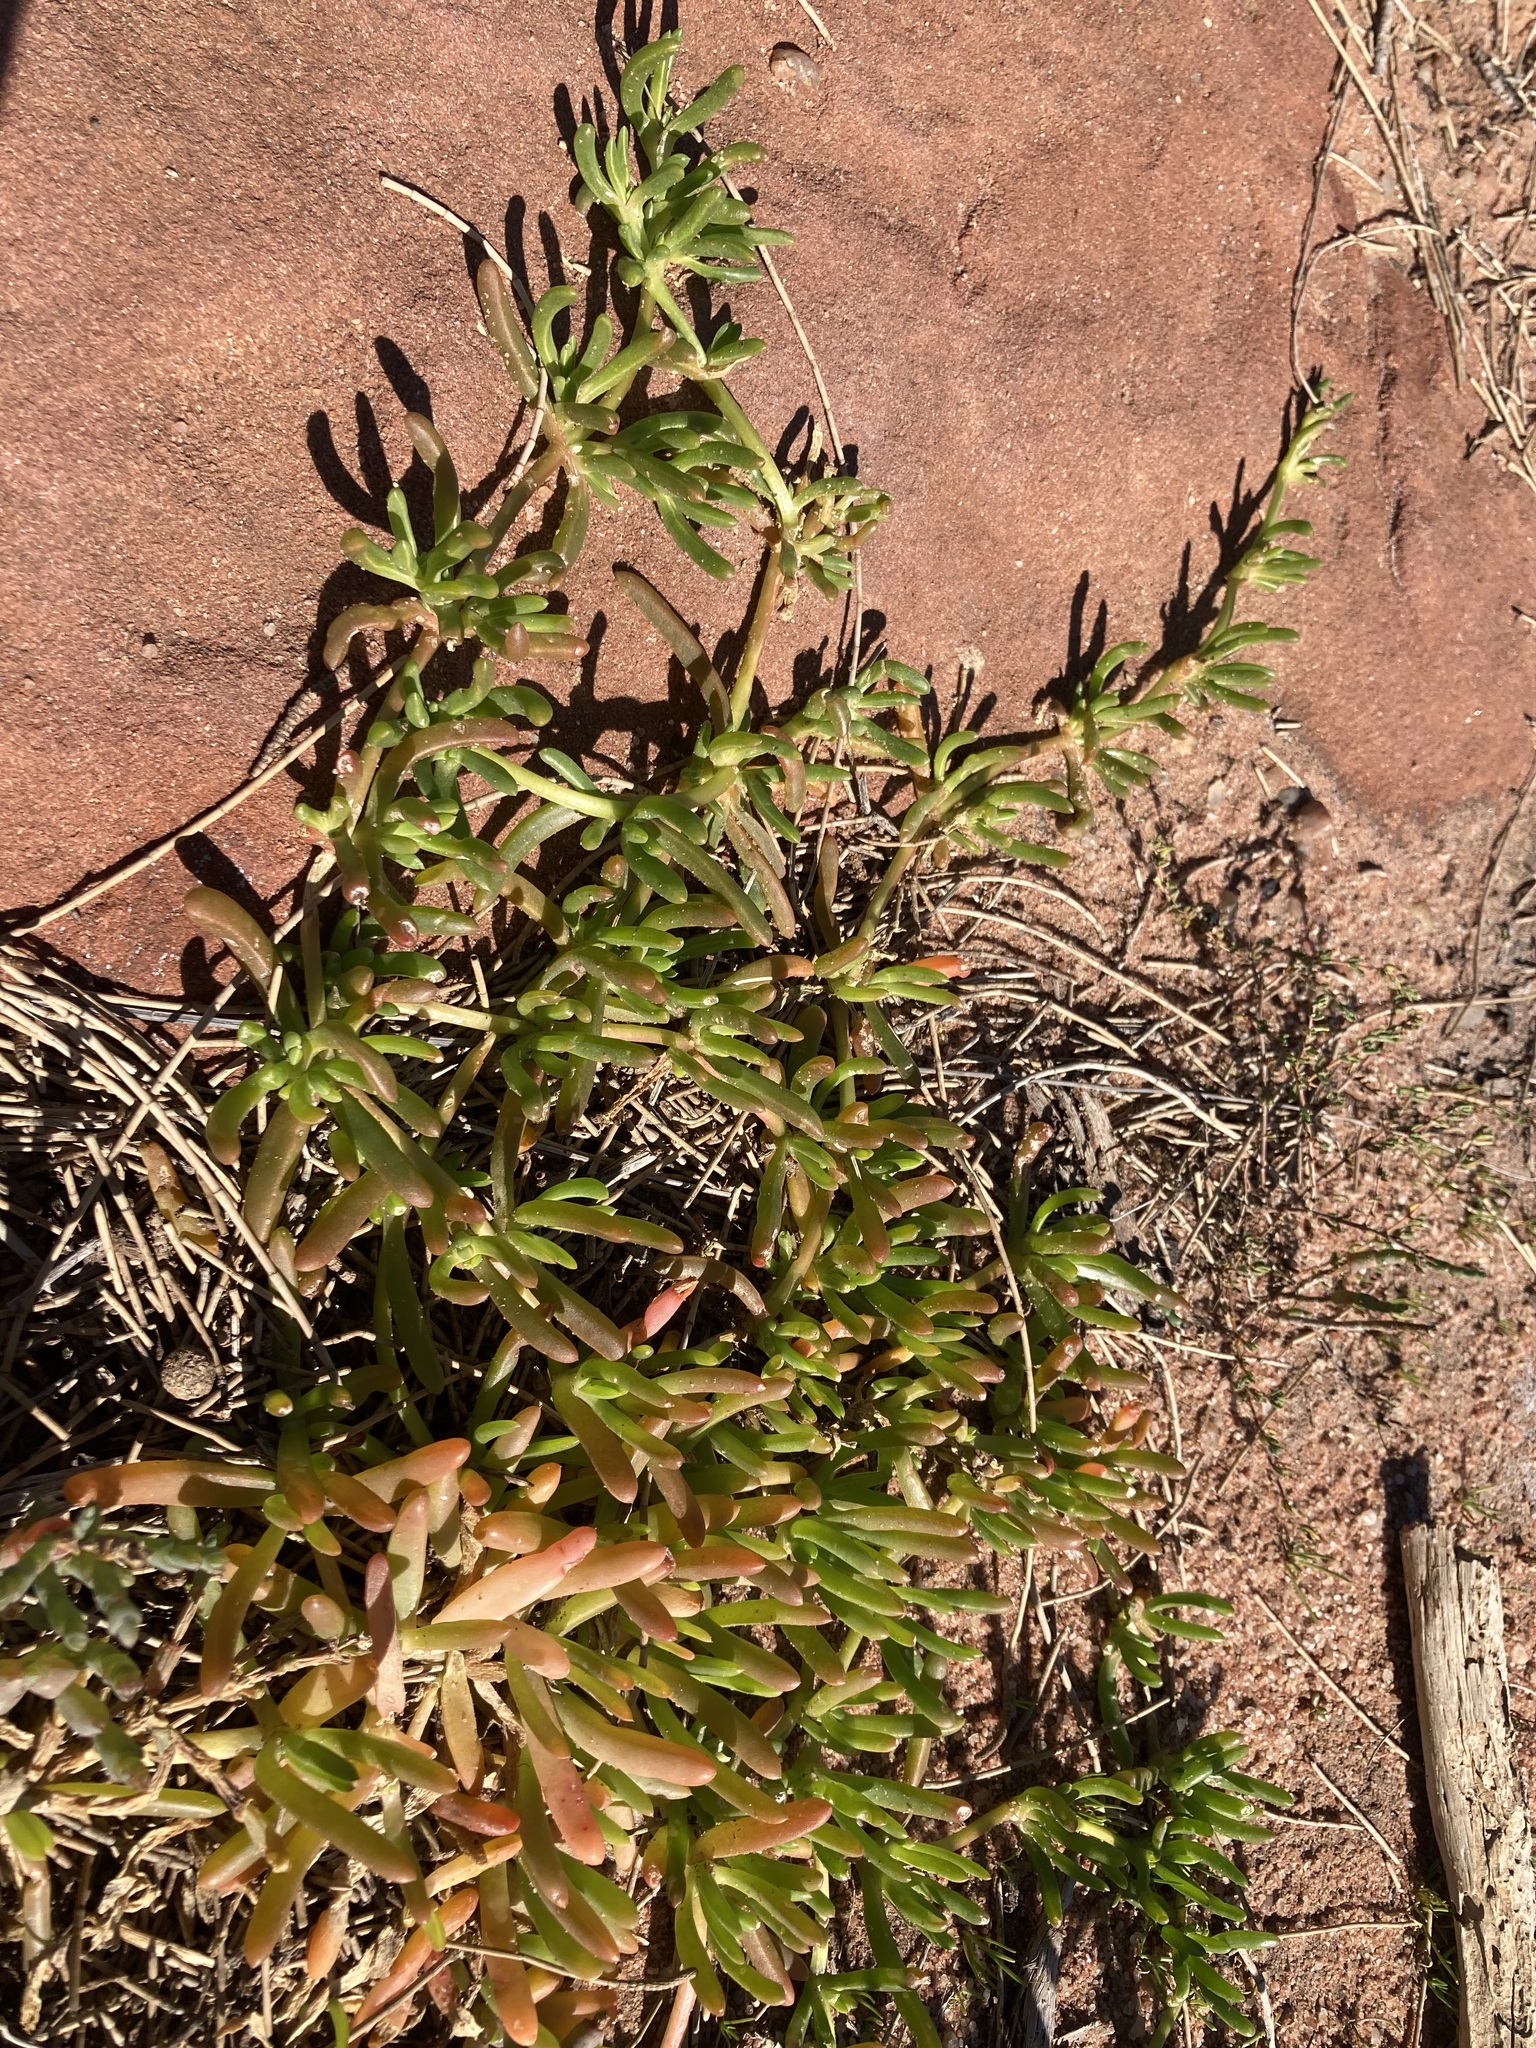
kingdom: Plantae
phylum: Tracheophyta
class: Magnoliopsida
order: Caryophyllales
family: Aizoaceae
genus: Disphyma
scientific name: Disphyma clavellatum
